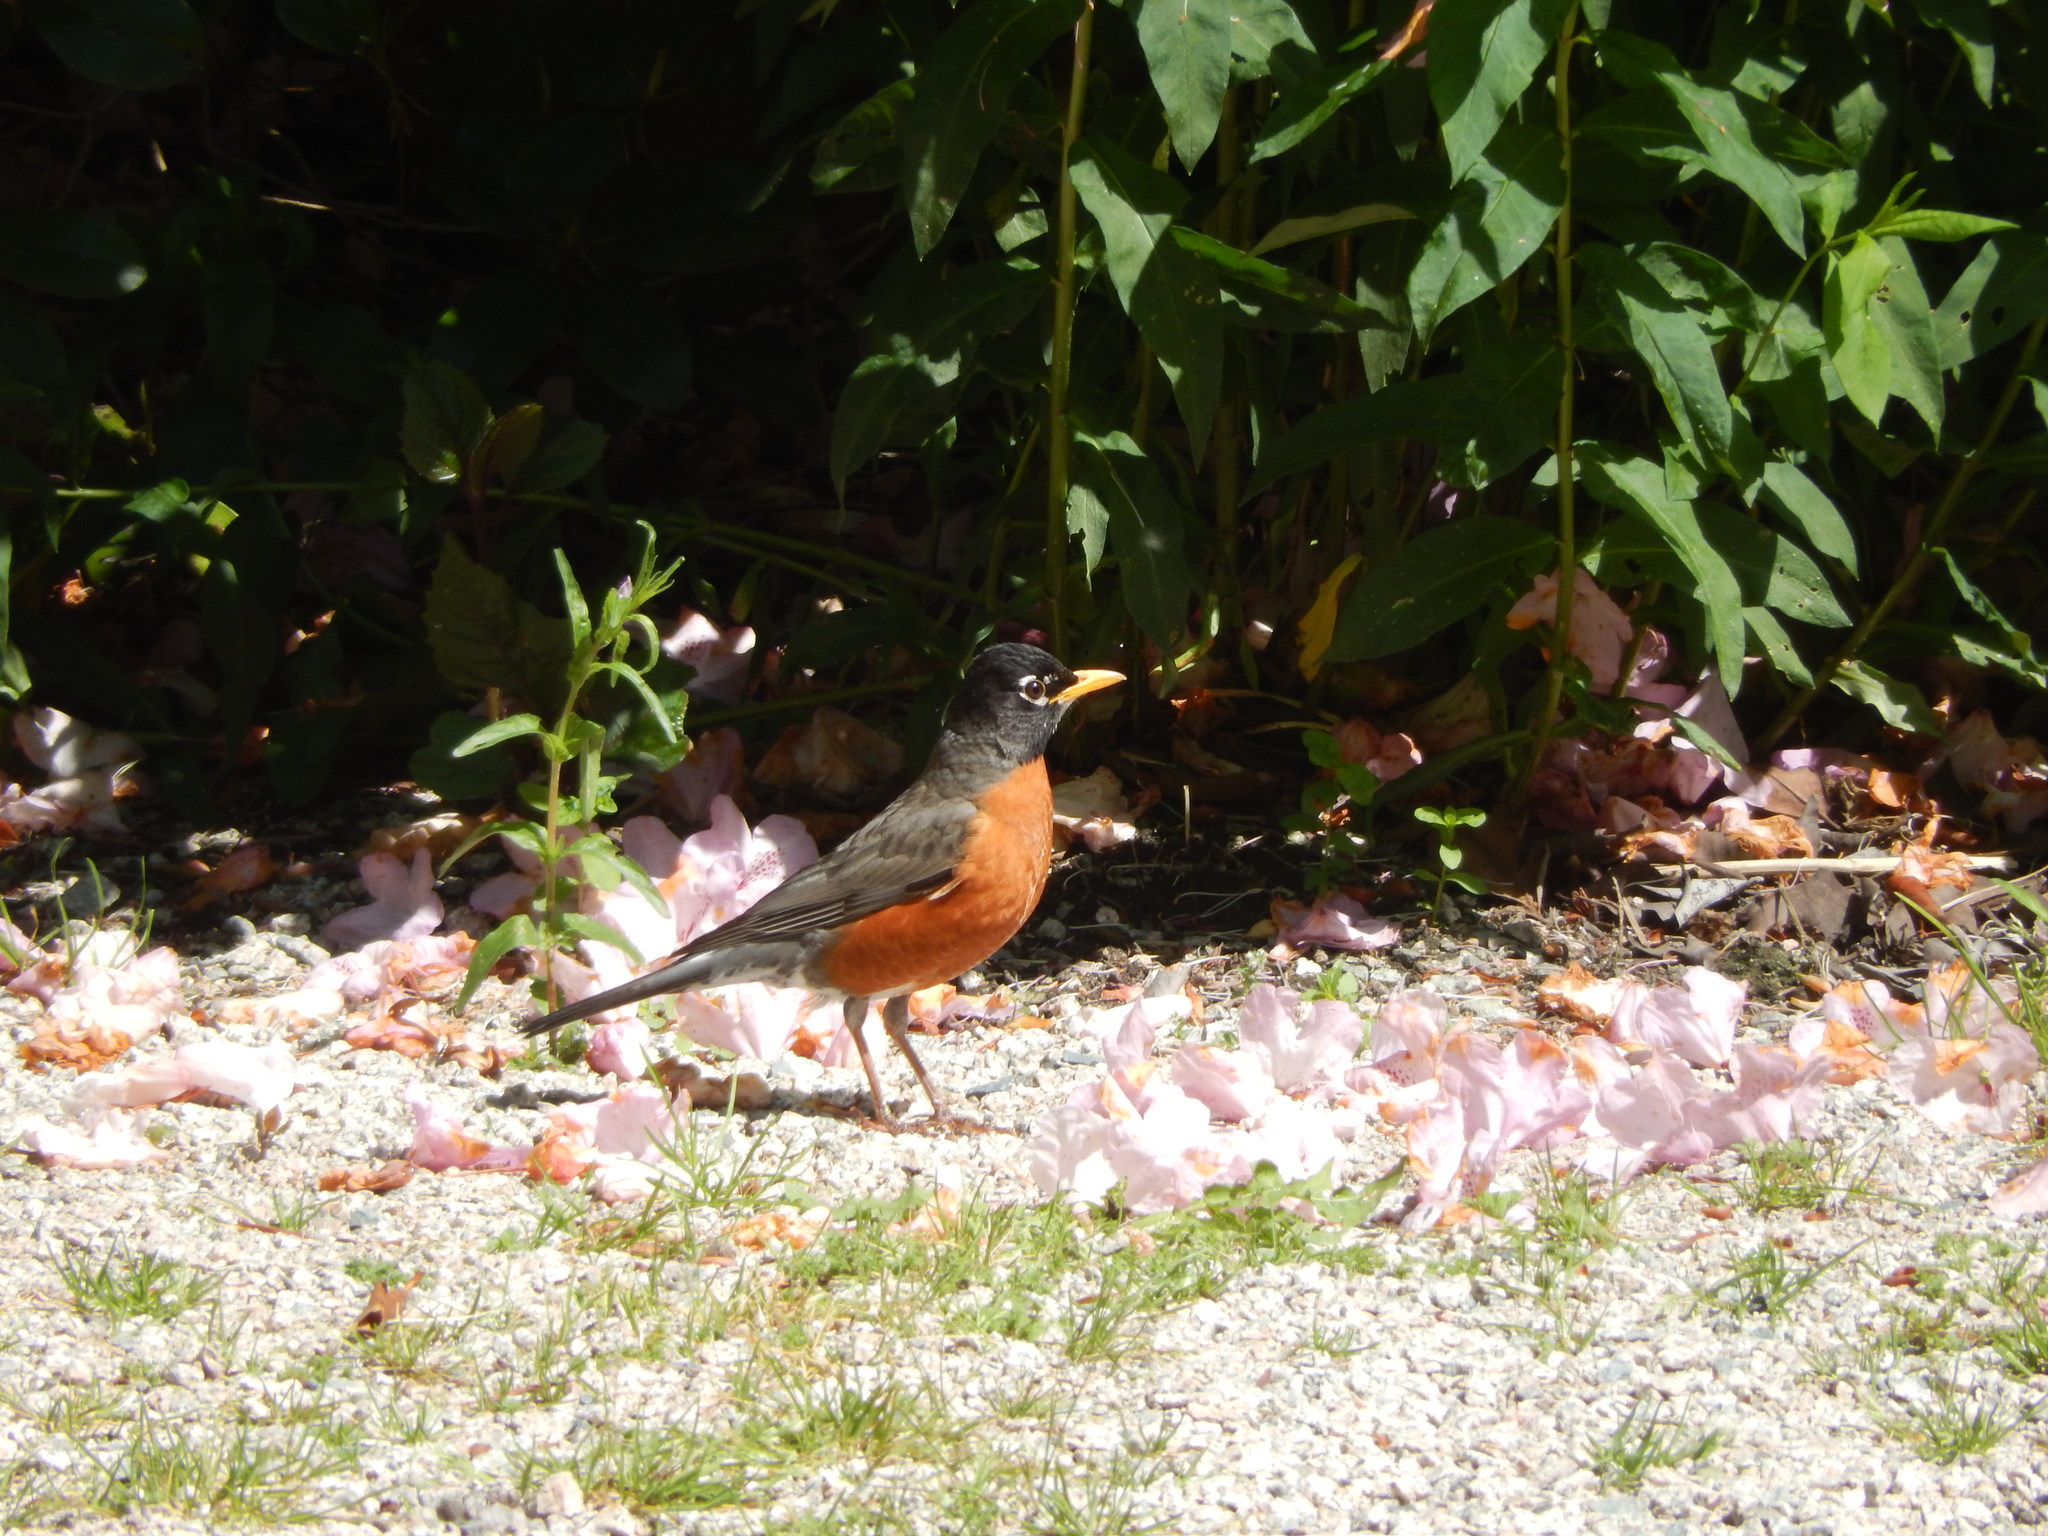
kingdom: Animalia
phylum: Chordata
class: Aves
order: Passeriformes
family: Turdidae
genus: Turdus
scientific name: Turdus migratorius
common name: American robin
